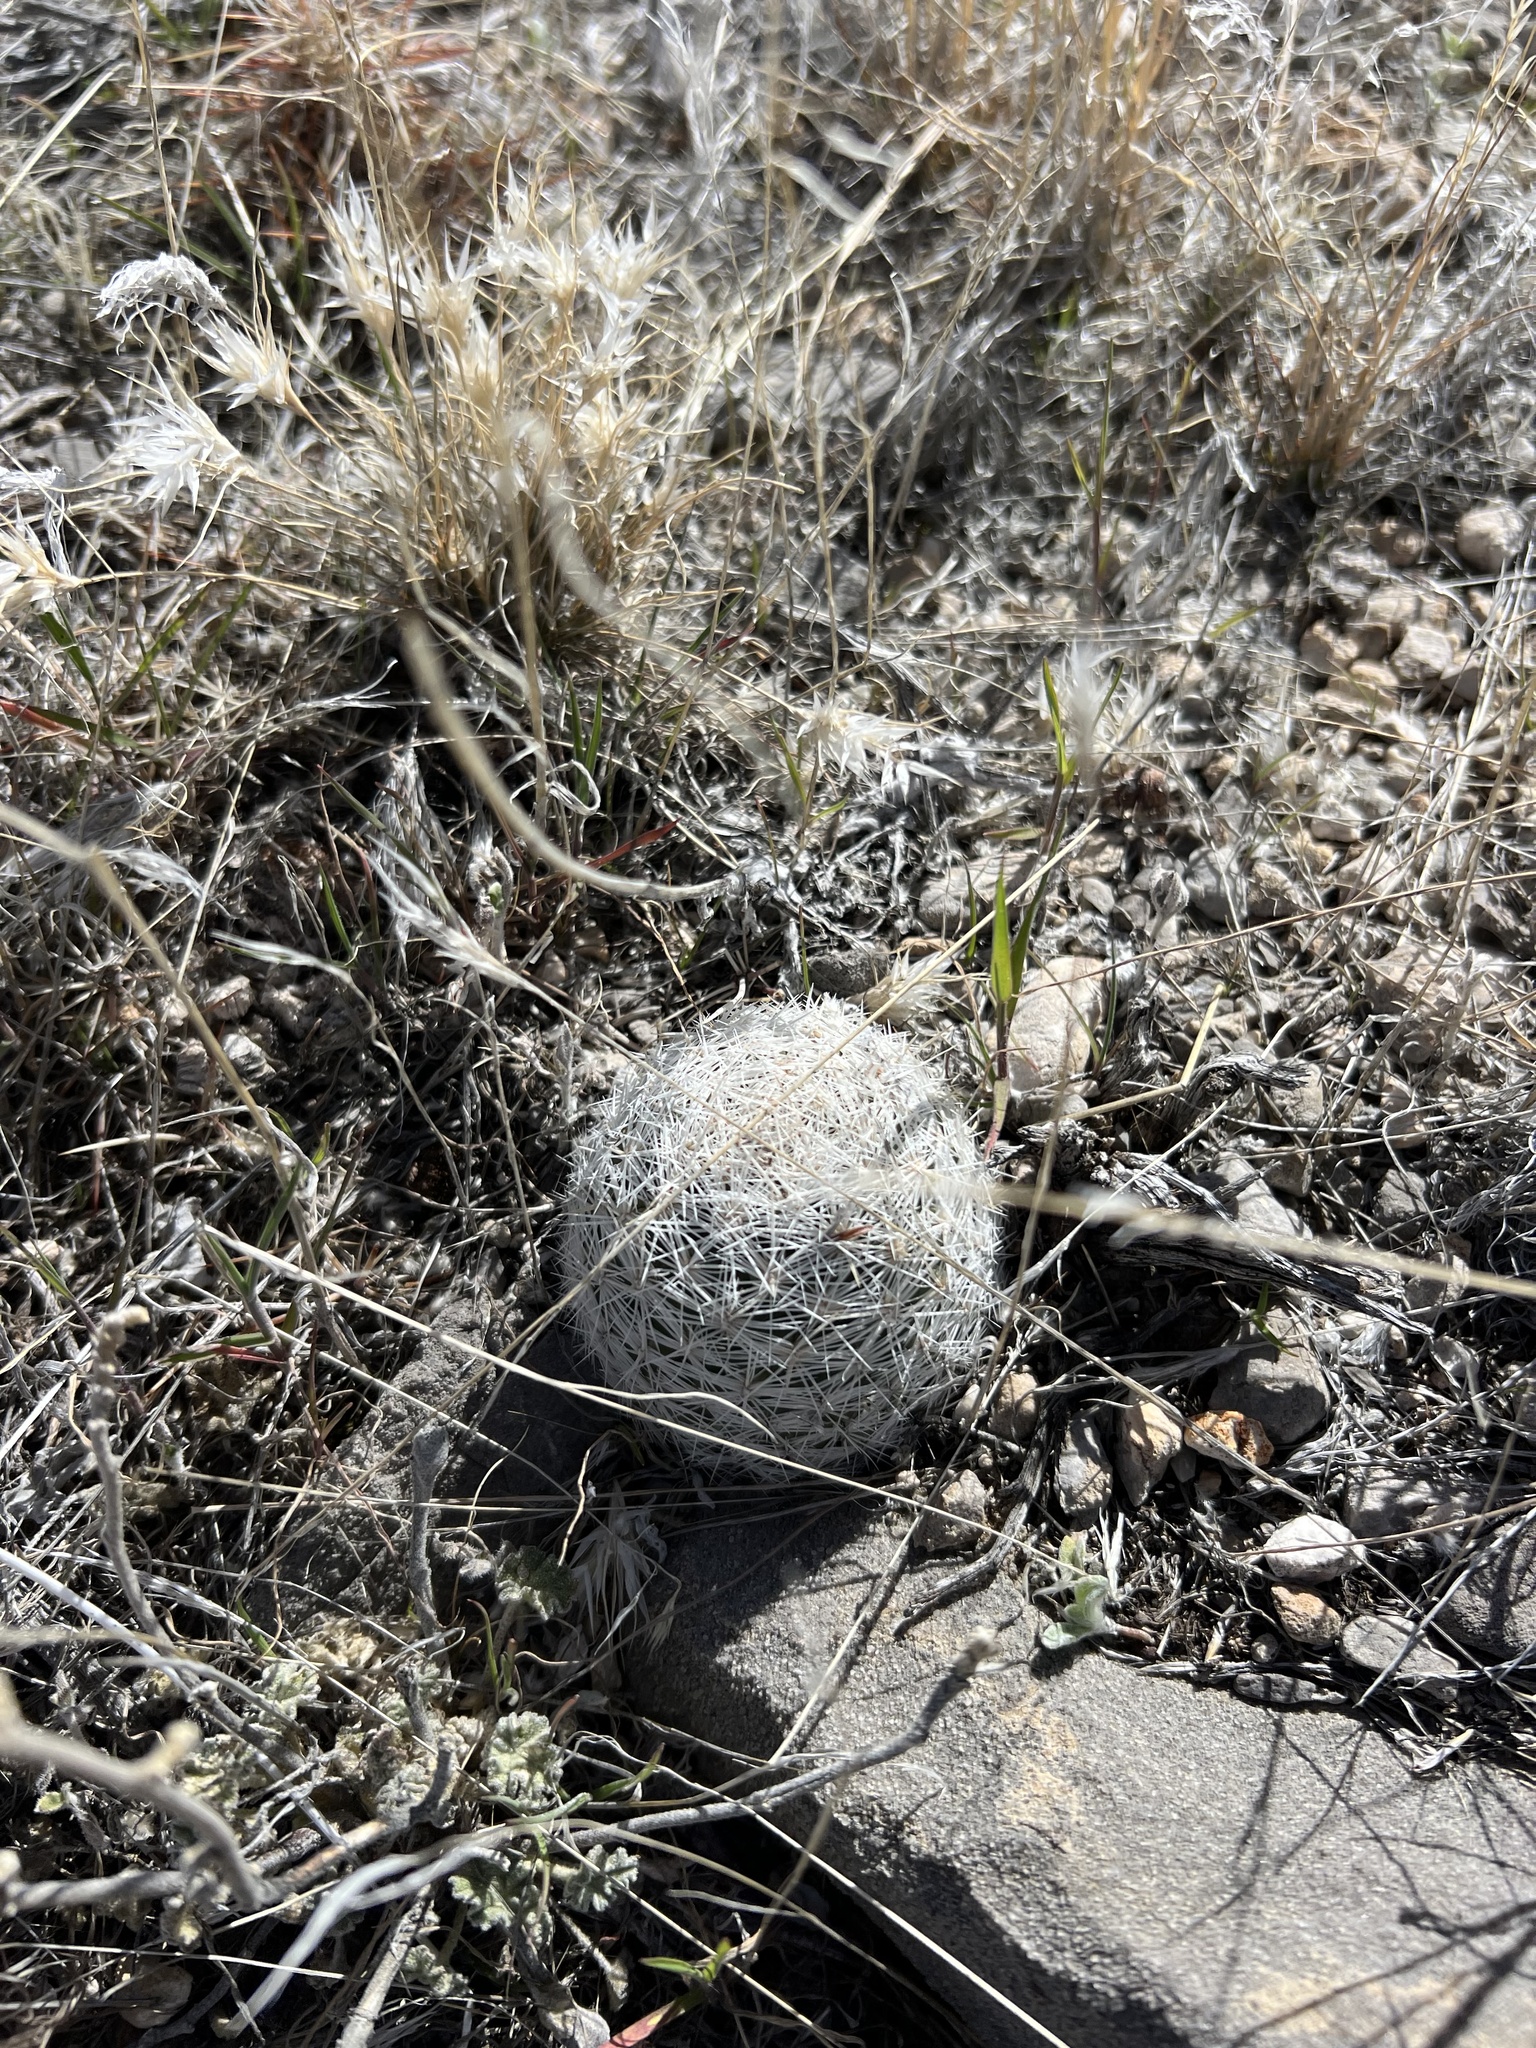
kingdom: Plantae
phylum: Tracheophyta
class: Magnoliopsida
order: Caryophyllales
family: Cactaceae
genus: Pelecyphora
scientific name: Pelecyphora dasyacantha
